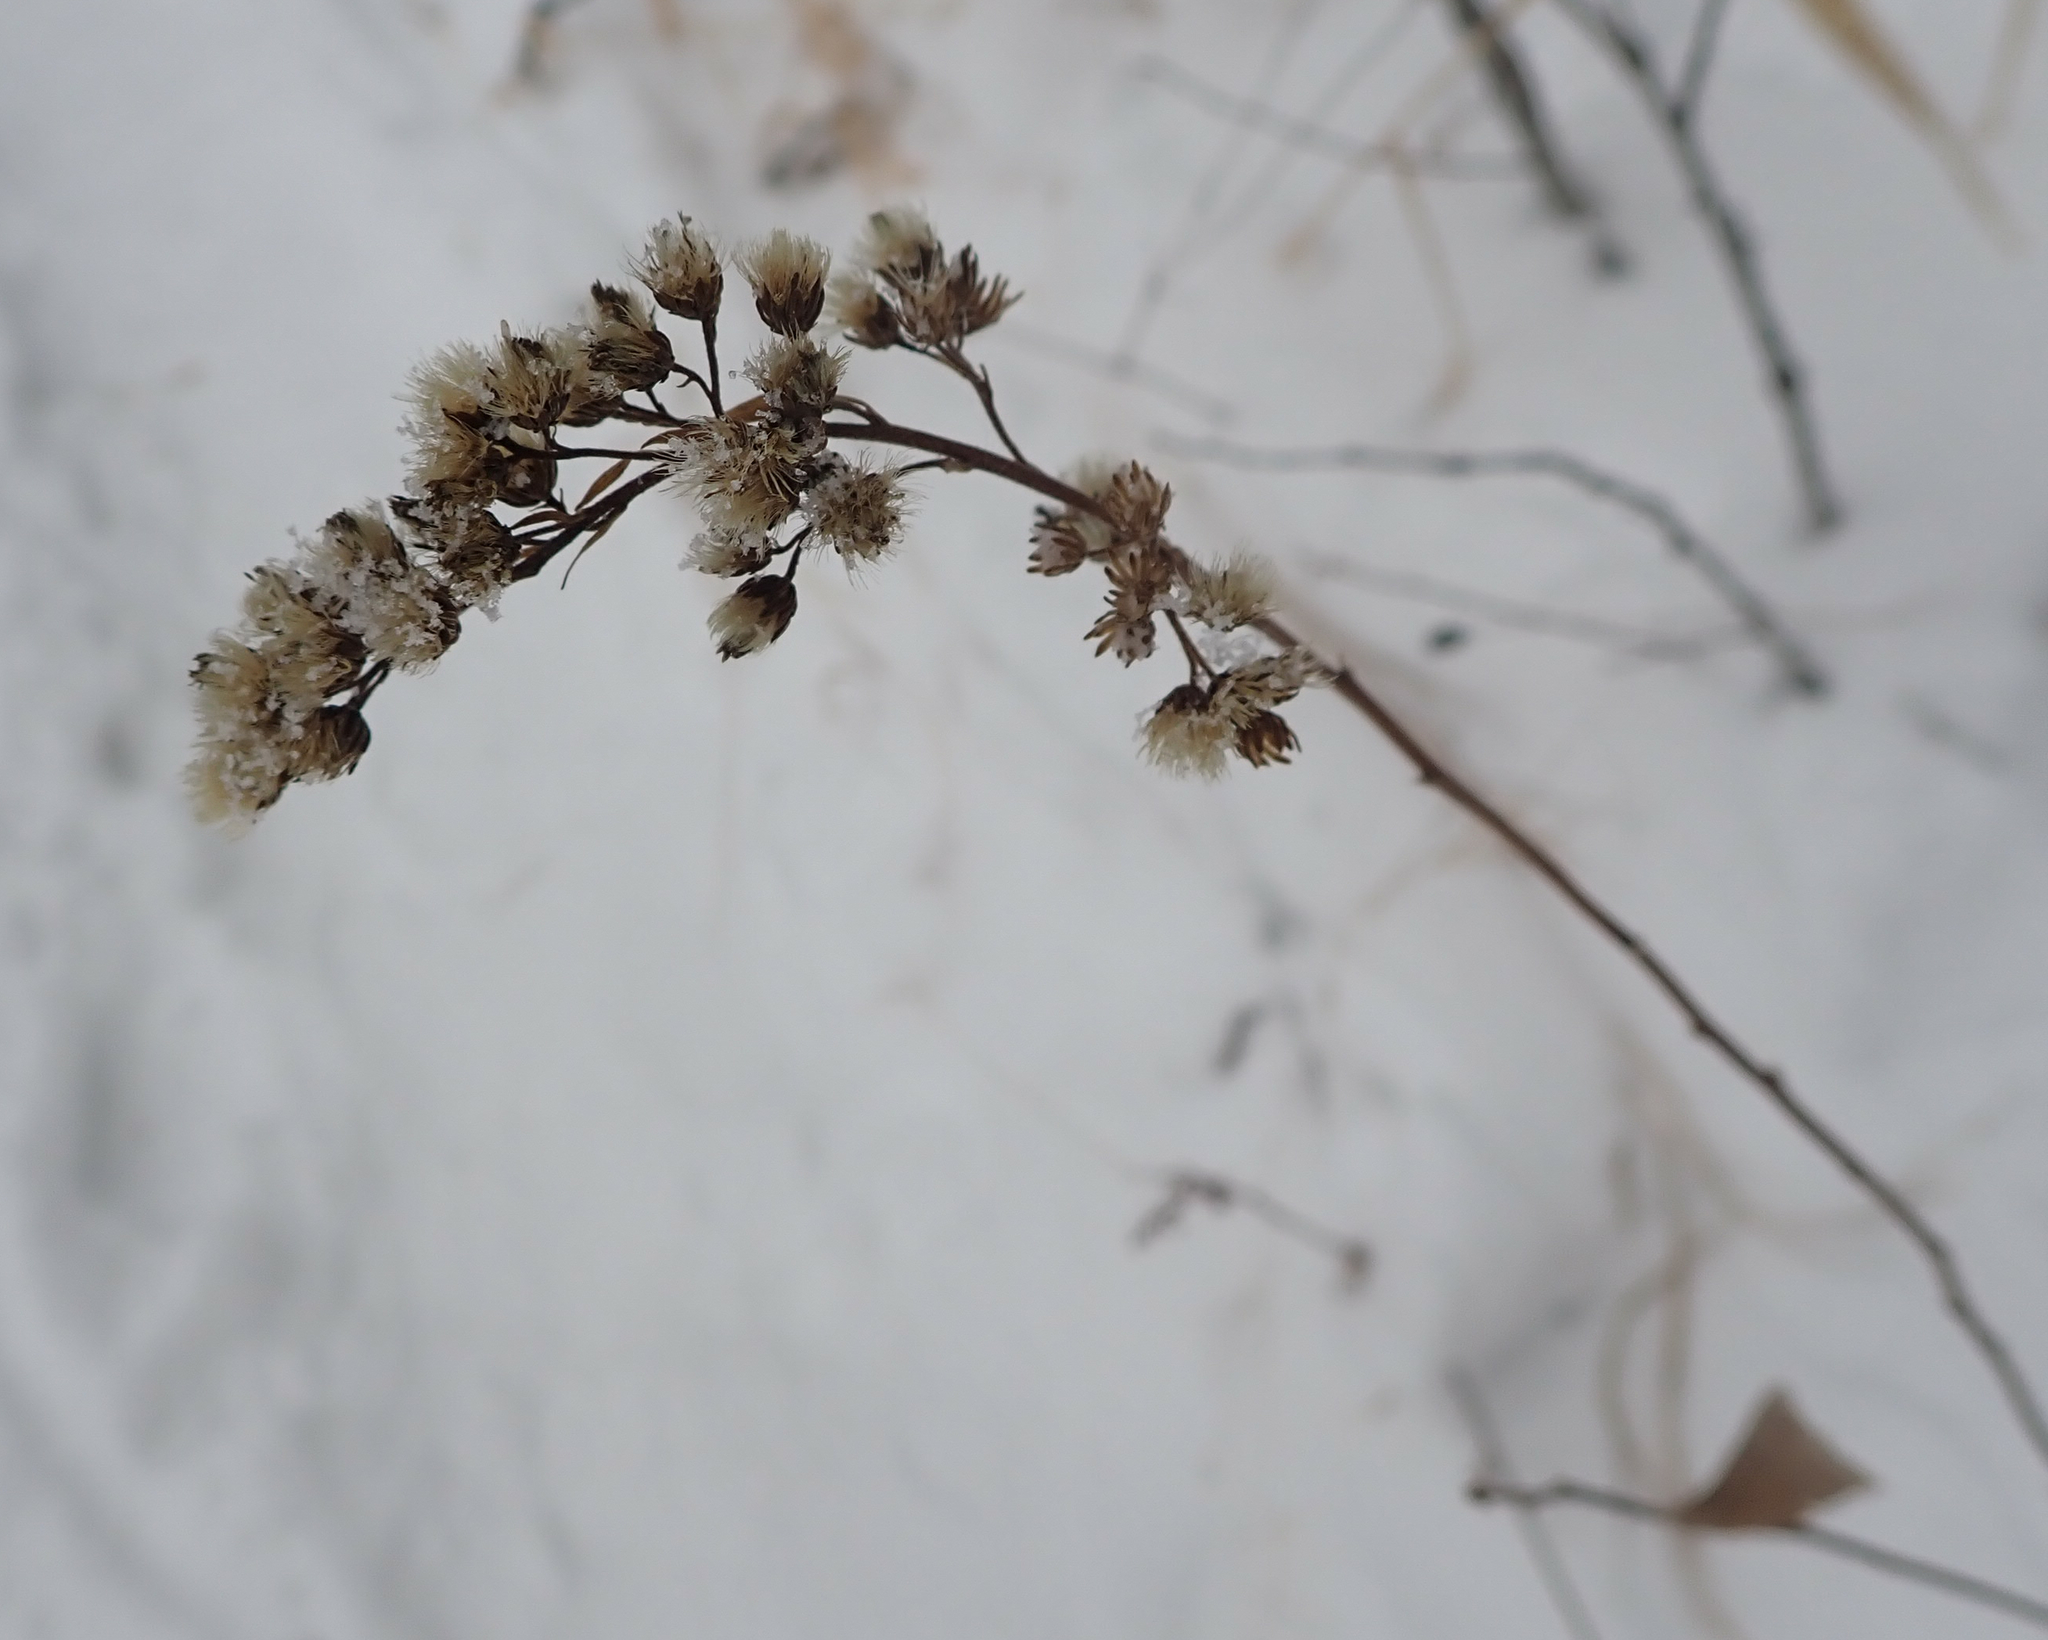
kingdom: Plantae
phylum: Tracheophyta
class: Magnoliopsida
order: Rosales
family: Rosaceae
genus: Spiraea
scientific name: Spiraea alba
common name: Pale bridewort
